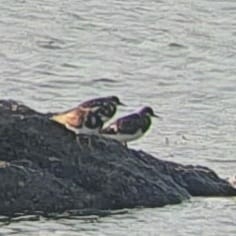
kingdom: Animalia
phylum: Chordata
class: Aves
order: Charadriiformes
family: Scolopacidae
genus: Arenaria
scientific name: Arenaria interpres
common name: Ruddy turnstone
